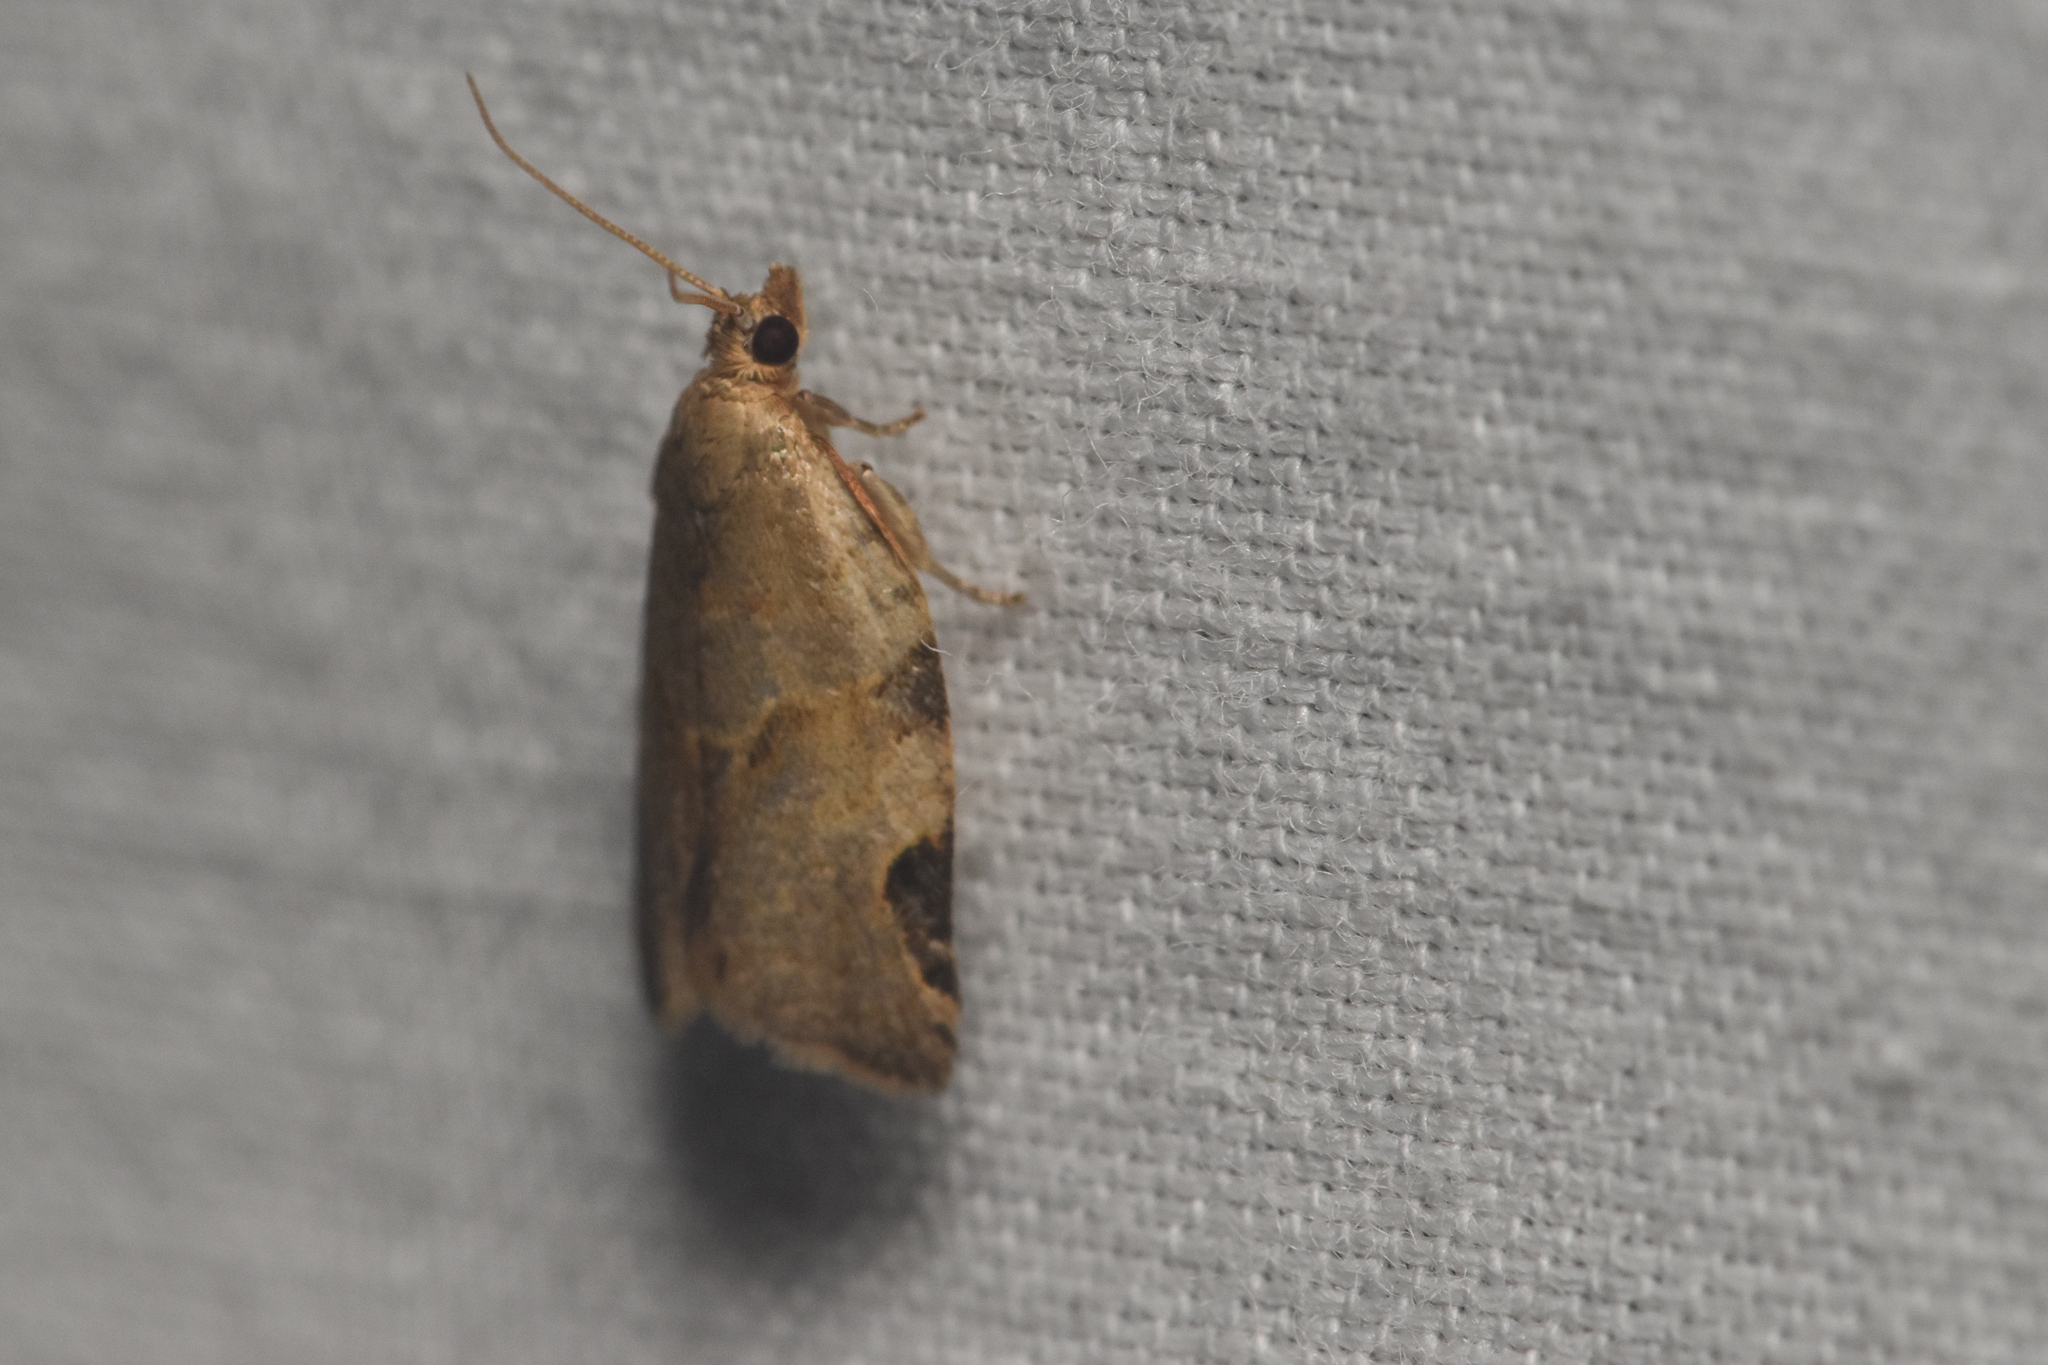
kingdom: Animalia
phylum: Arthropoda
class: Insecta
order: Lepidoptera
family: Tortricidae
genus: Clepsis
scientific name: Clepsis virescana
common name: Greenish apple moth
